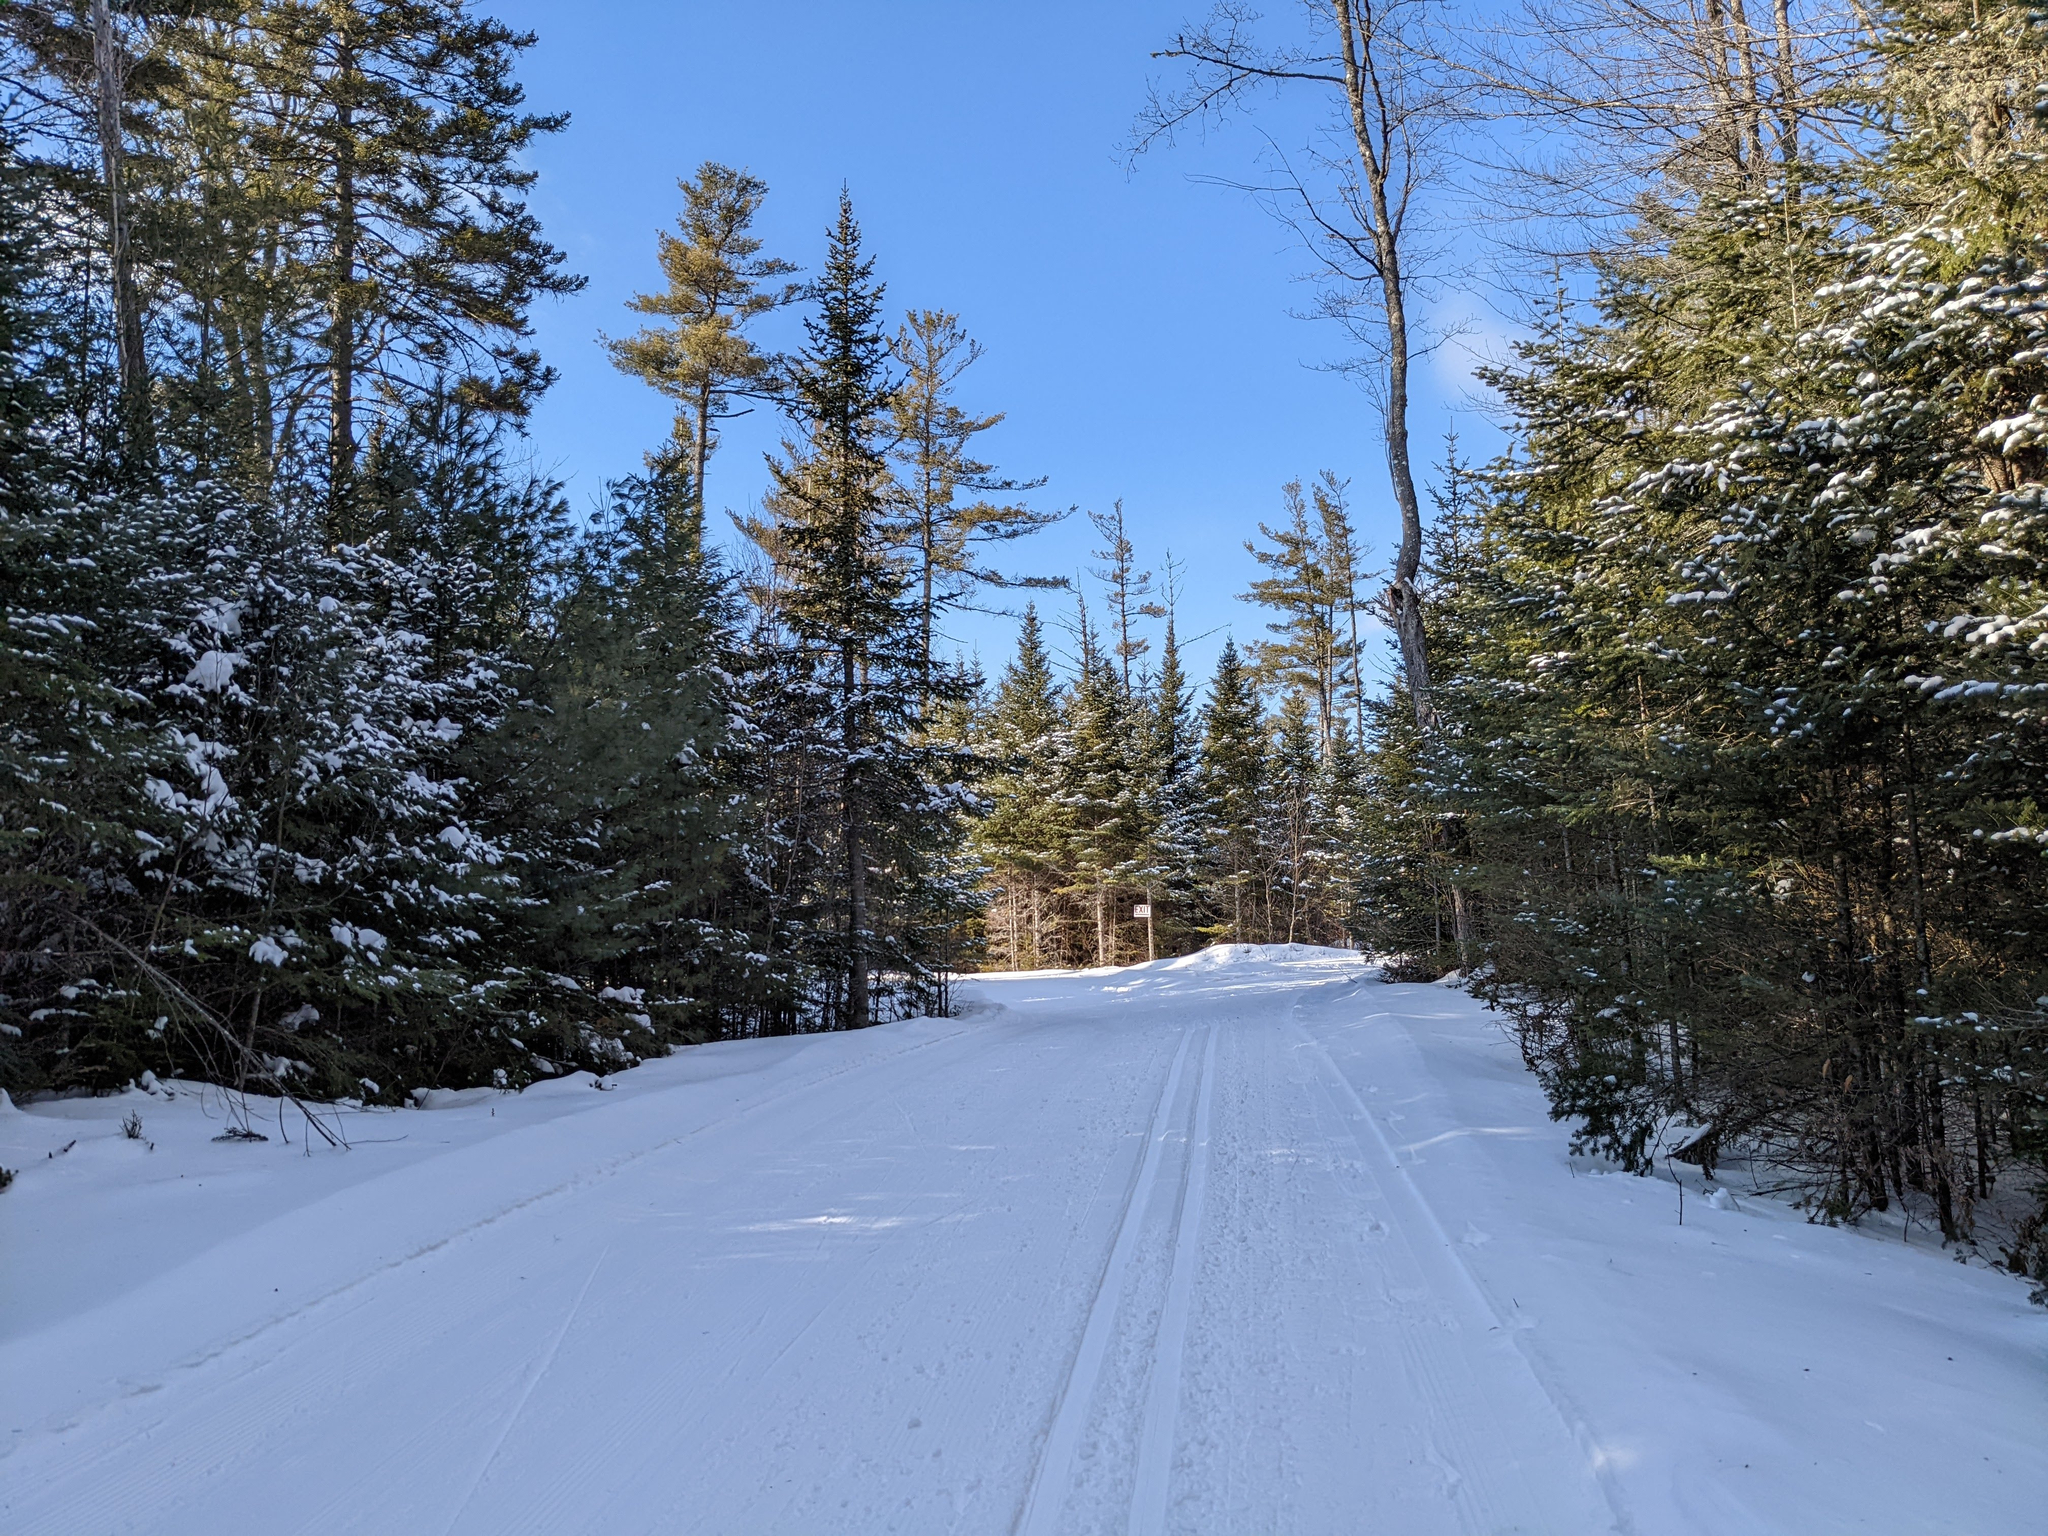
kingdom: Plantae
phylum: Tracheophyta
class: Pinopsida
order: Pinales
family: Pinaceae
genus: Pinus
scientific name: Pinus strobus
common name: Weymouth pine
